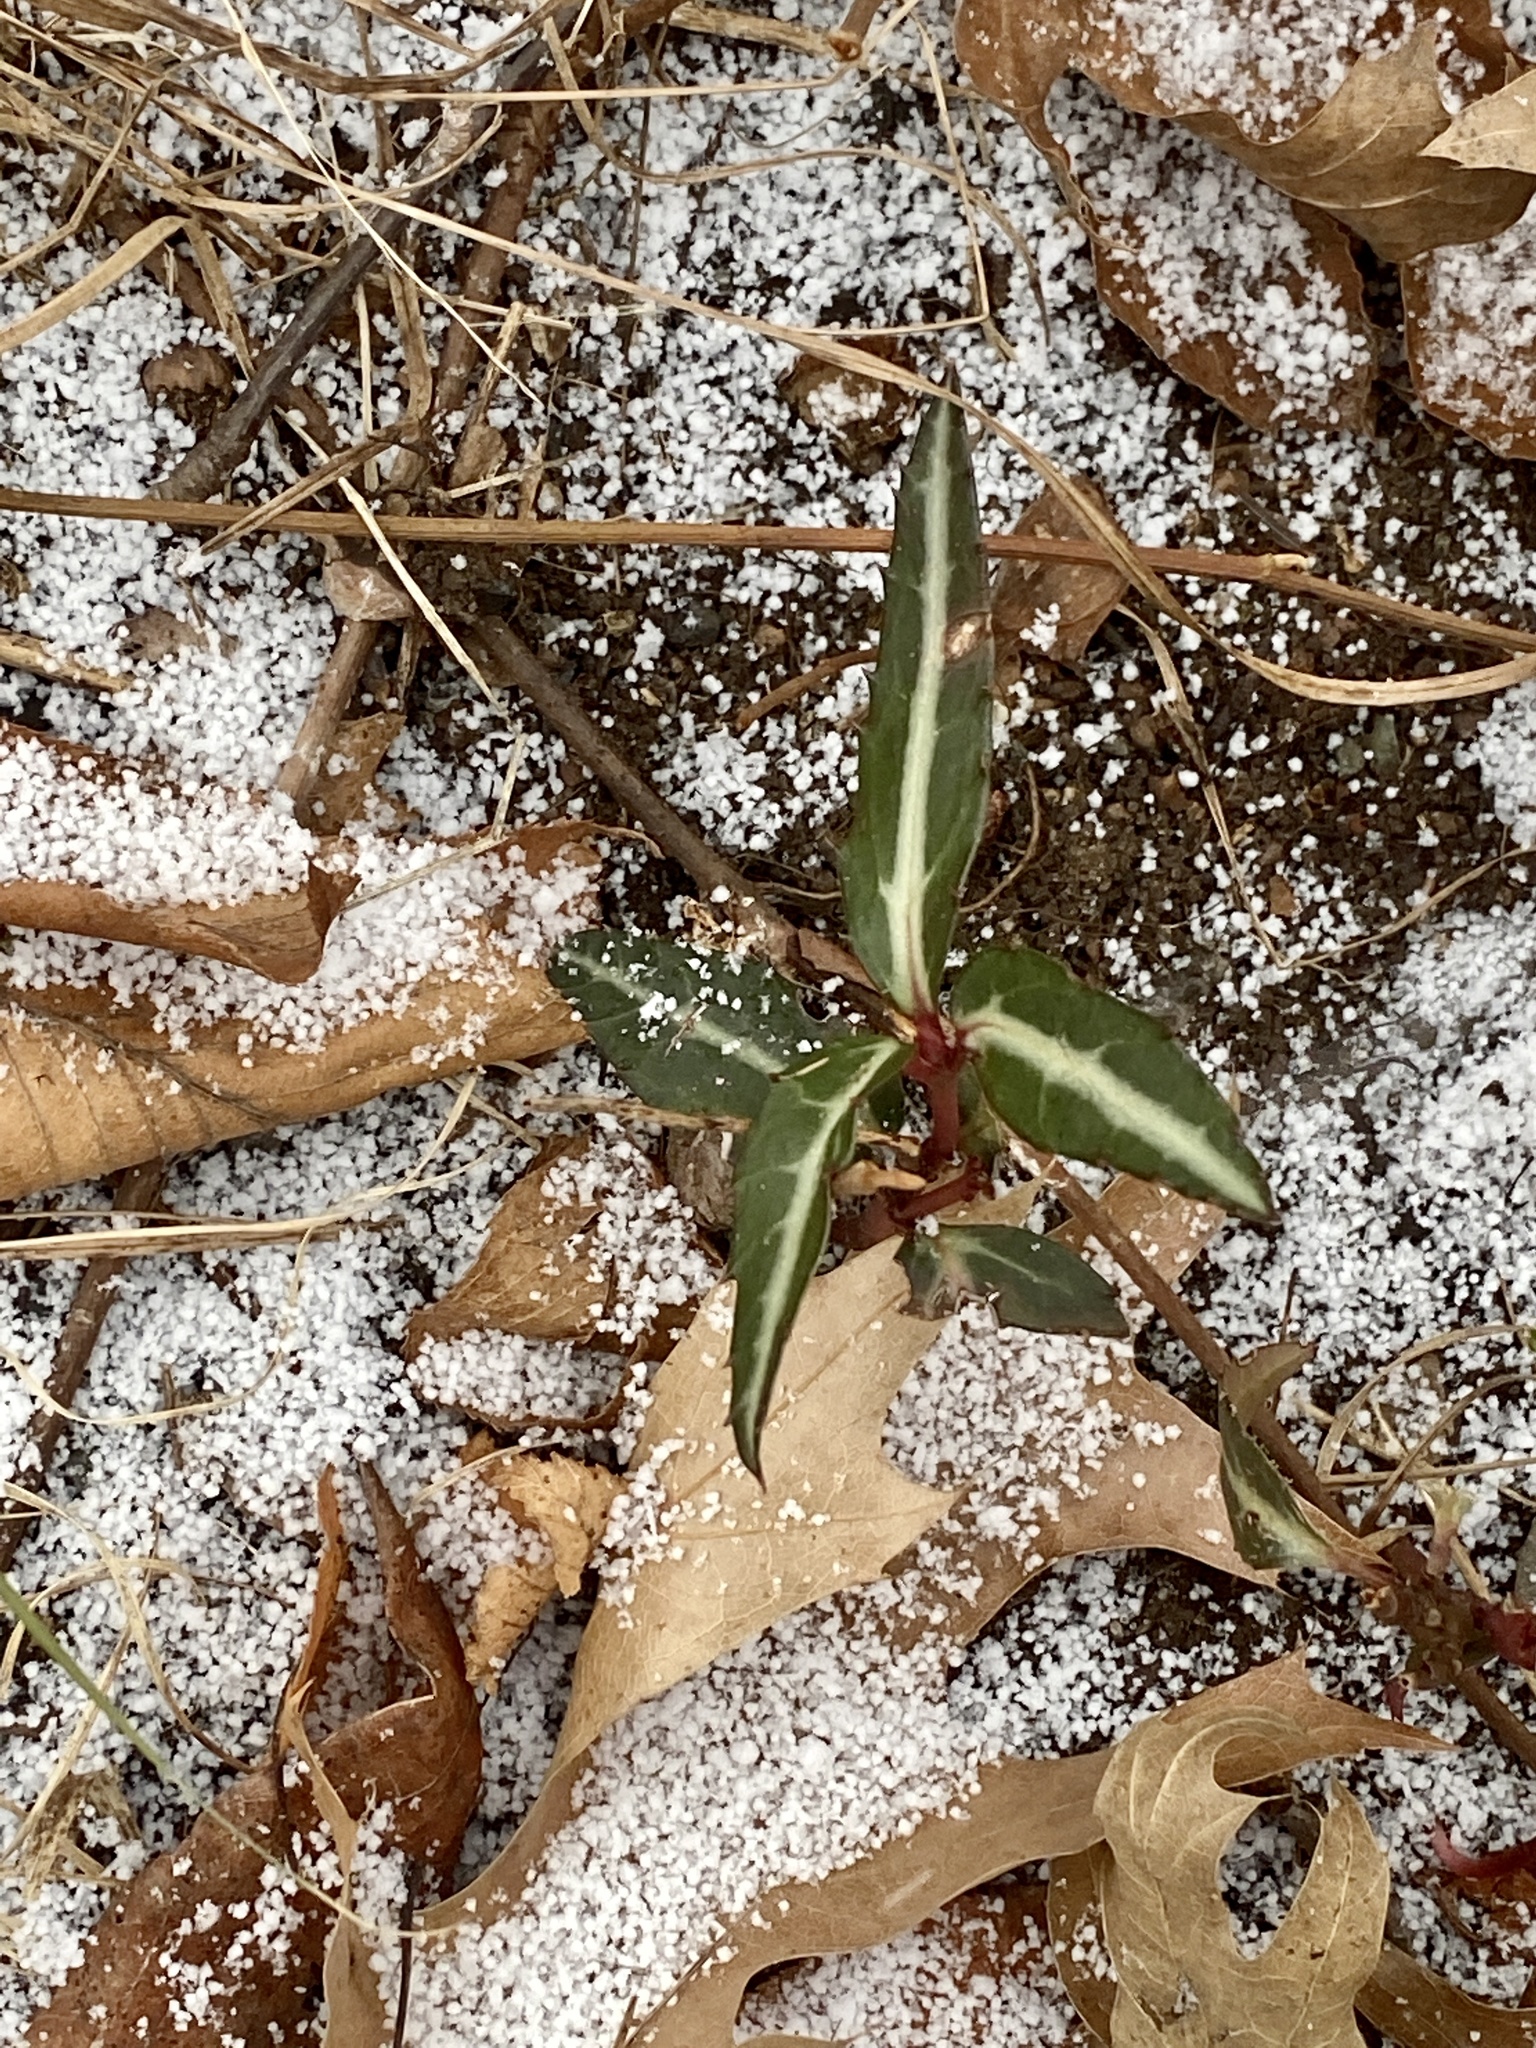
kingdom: Plantae
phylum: Tracheophyta
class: Magnoliopsida
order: Ericales
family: Ericaceae
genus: Chimaphila
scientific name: Chimaphila maculata
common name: Spotted pipsissewa
